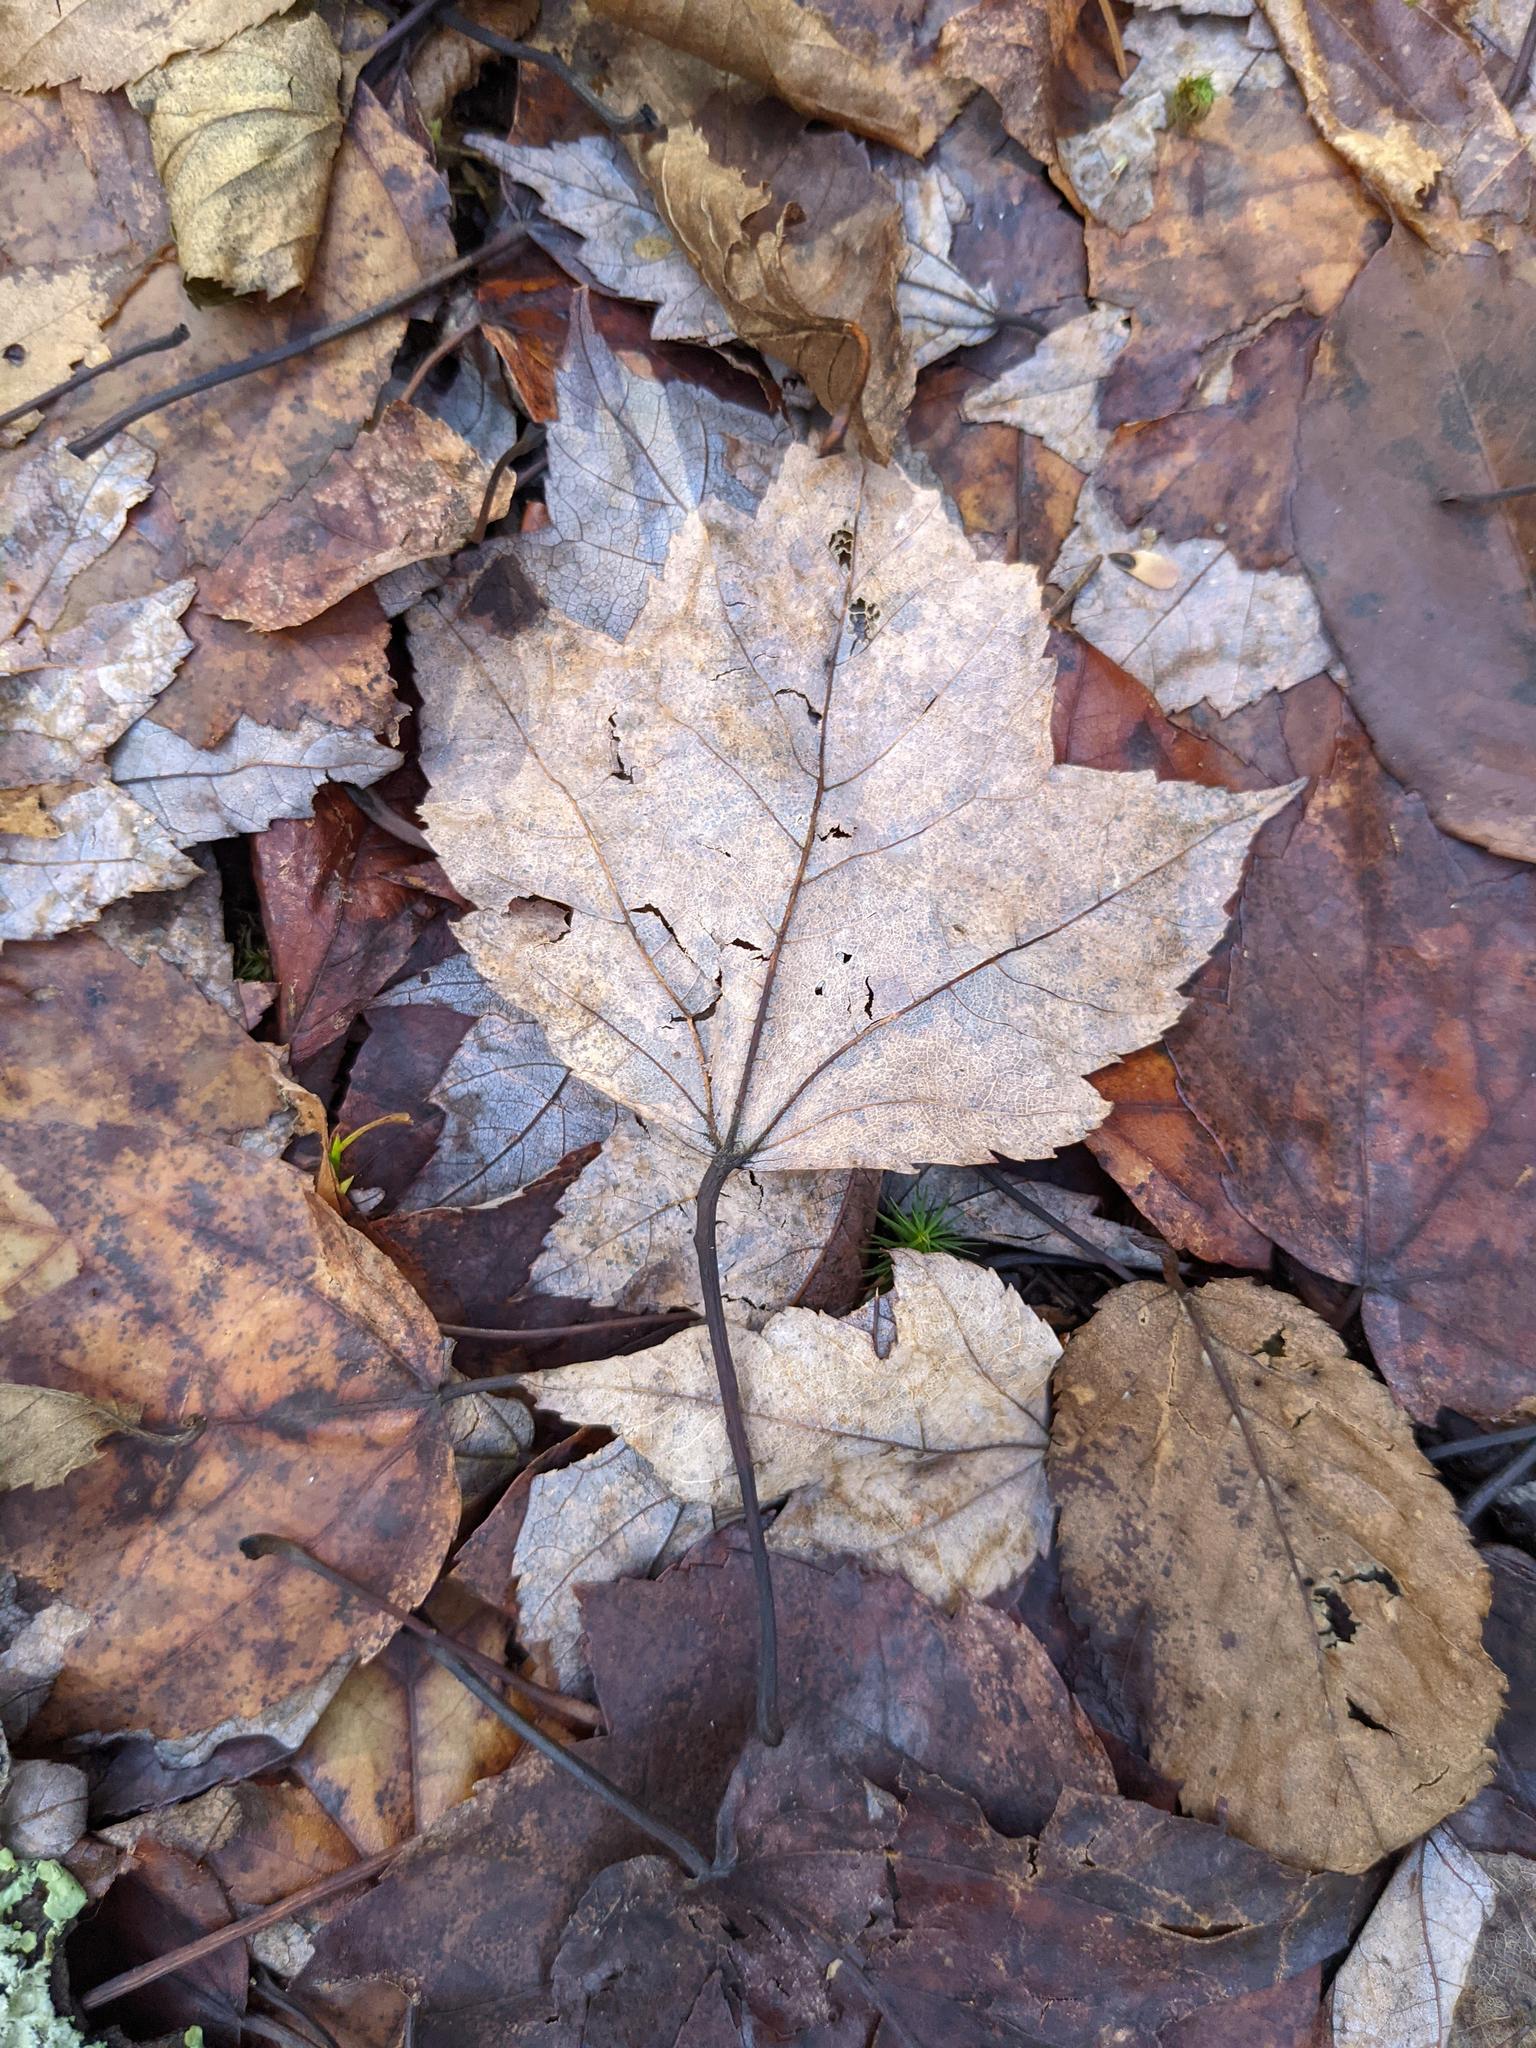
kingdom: Plantae
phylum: Tracheophyta
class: Magnoliopsida
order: Sapindales
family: Sapindaceae
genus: Acer
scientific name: Acer rubrum
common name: Red maple
